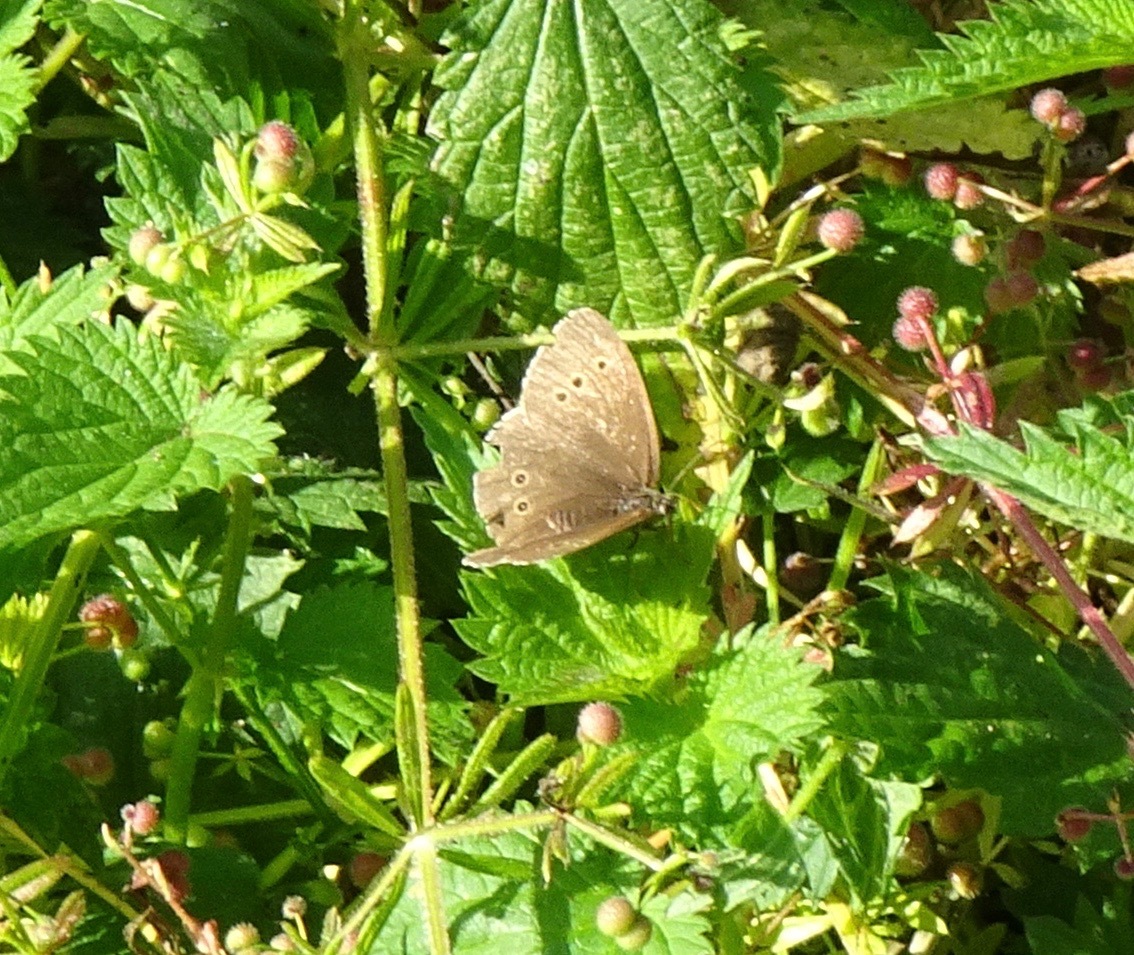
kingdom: Animalia
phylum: Arthropoda
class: Insecta
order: Lepidoptera
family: Nymphalidae
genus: Aphantopus
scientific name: Aphantopus hyperantus
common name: Ringlet
